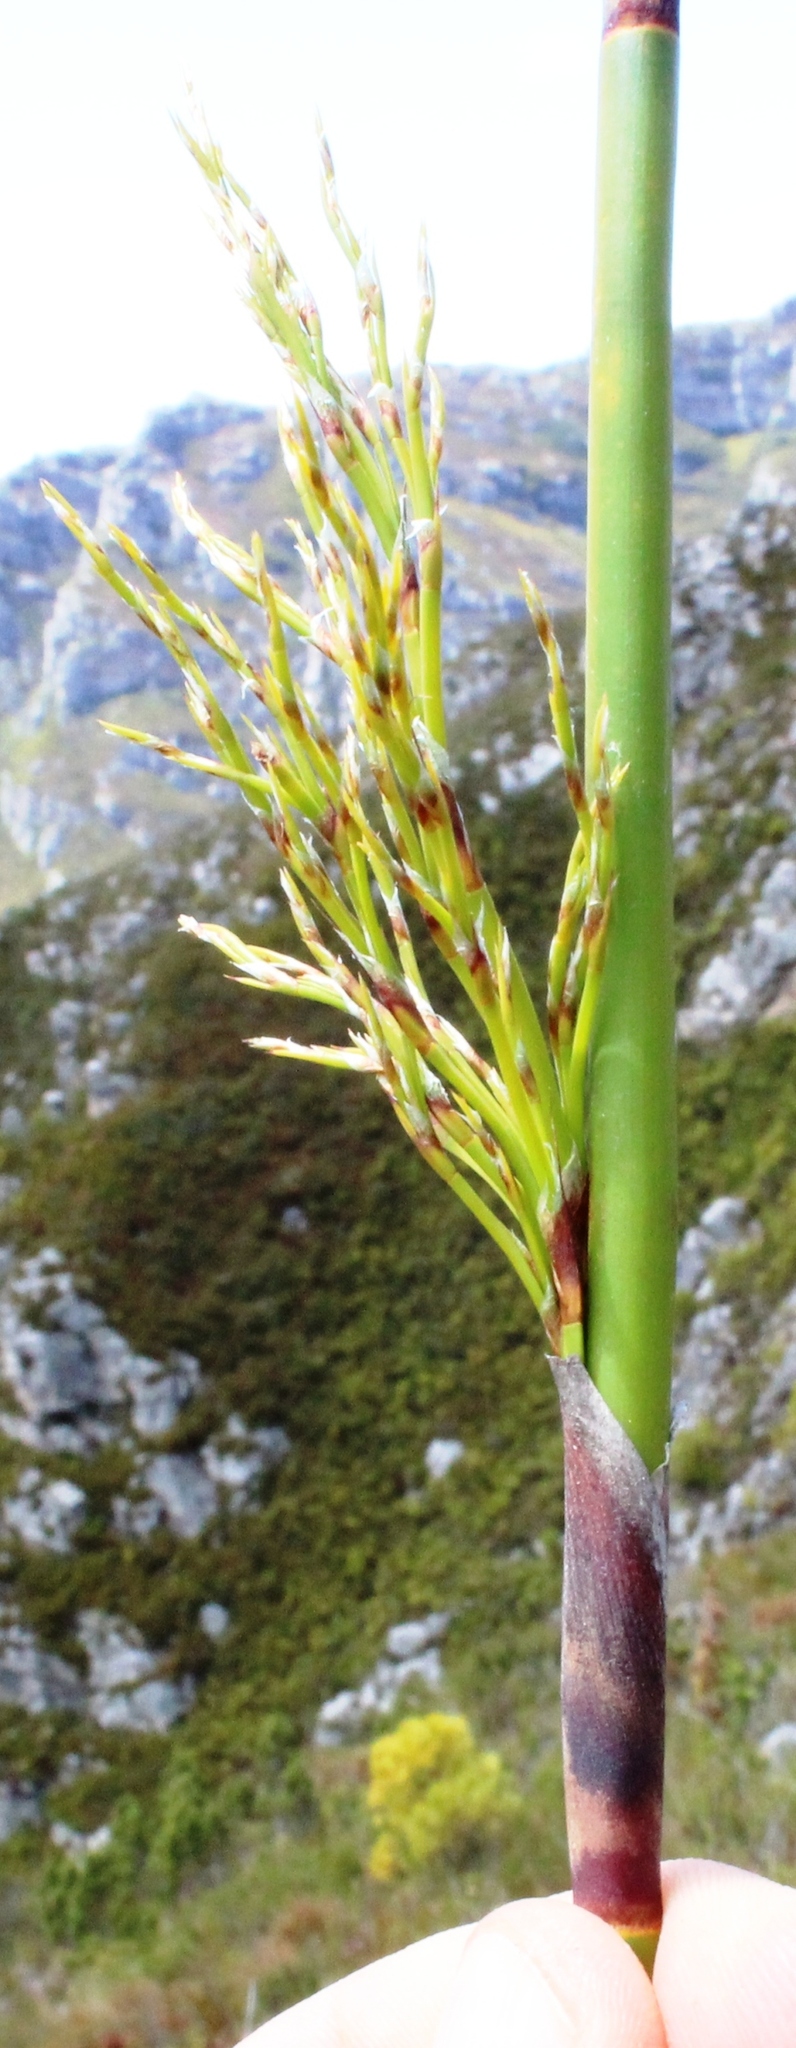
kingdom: Plantae
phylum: Tracheophyta
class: Liliopsida
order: Poales
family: Restionaceae
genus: Rhodocoma
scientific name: Rhodocoma foliosa
